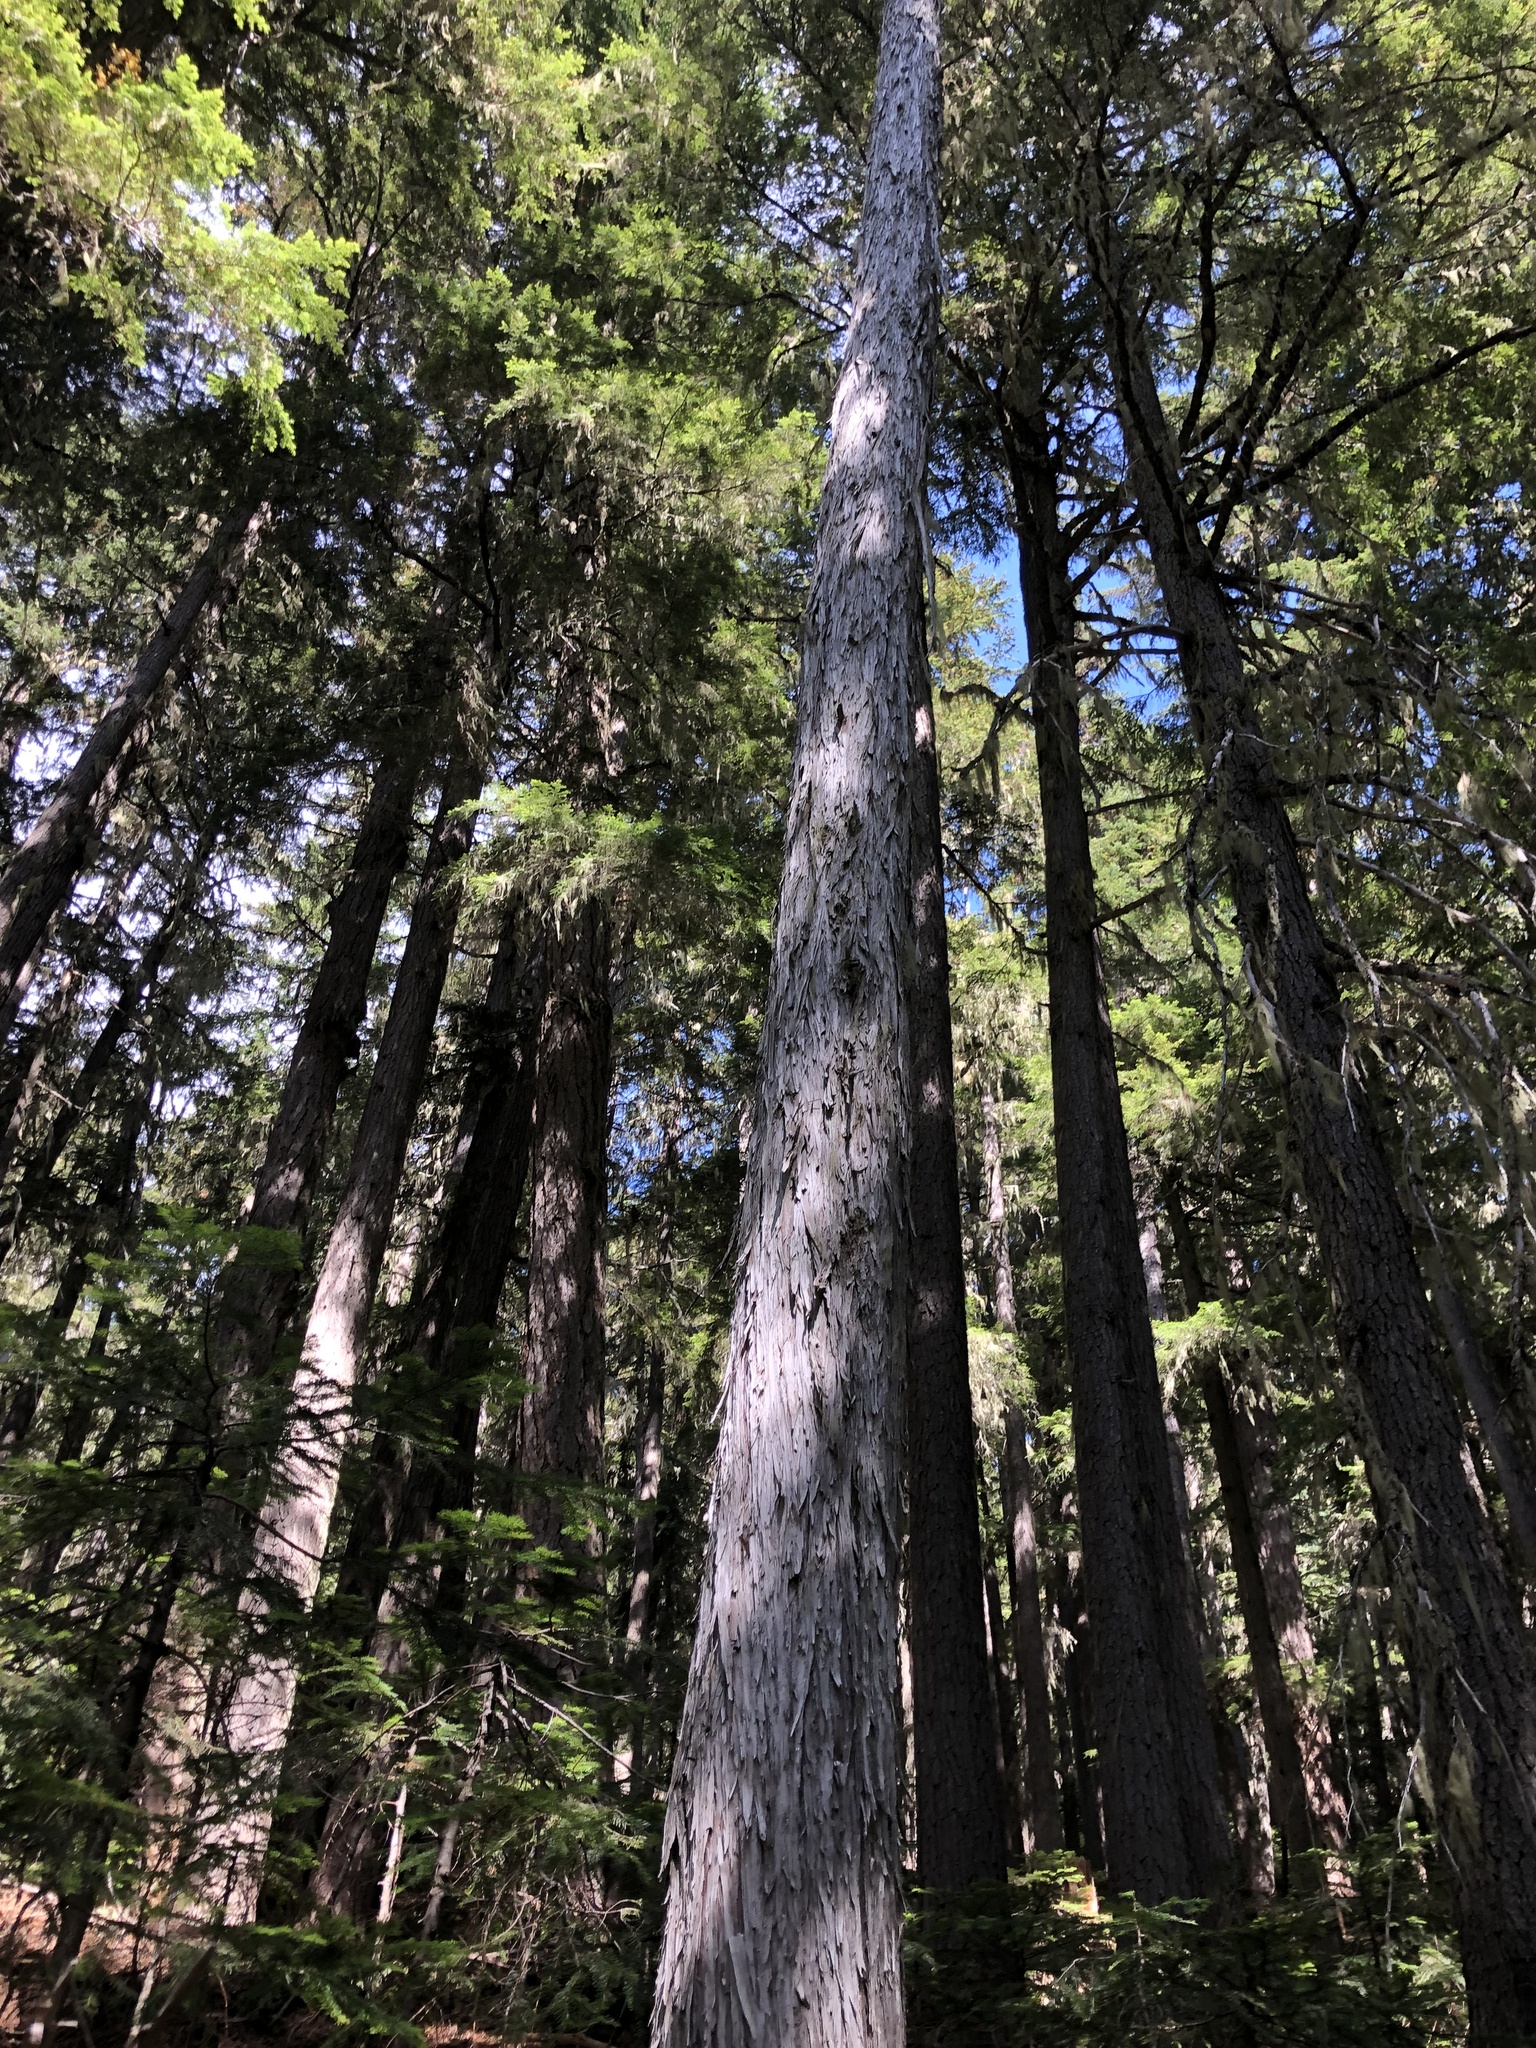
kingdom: Plantae
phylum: Tracheophyta
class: Pinopsida
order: Pinales
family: Cupressaceae
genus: Xanthocyparis
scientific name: Xanthocyparis nootkatensis
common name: Nootka cypress
